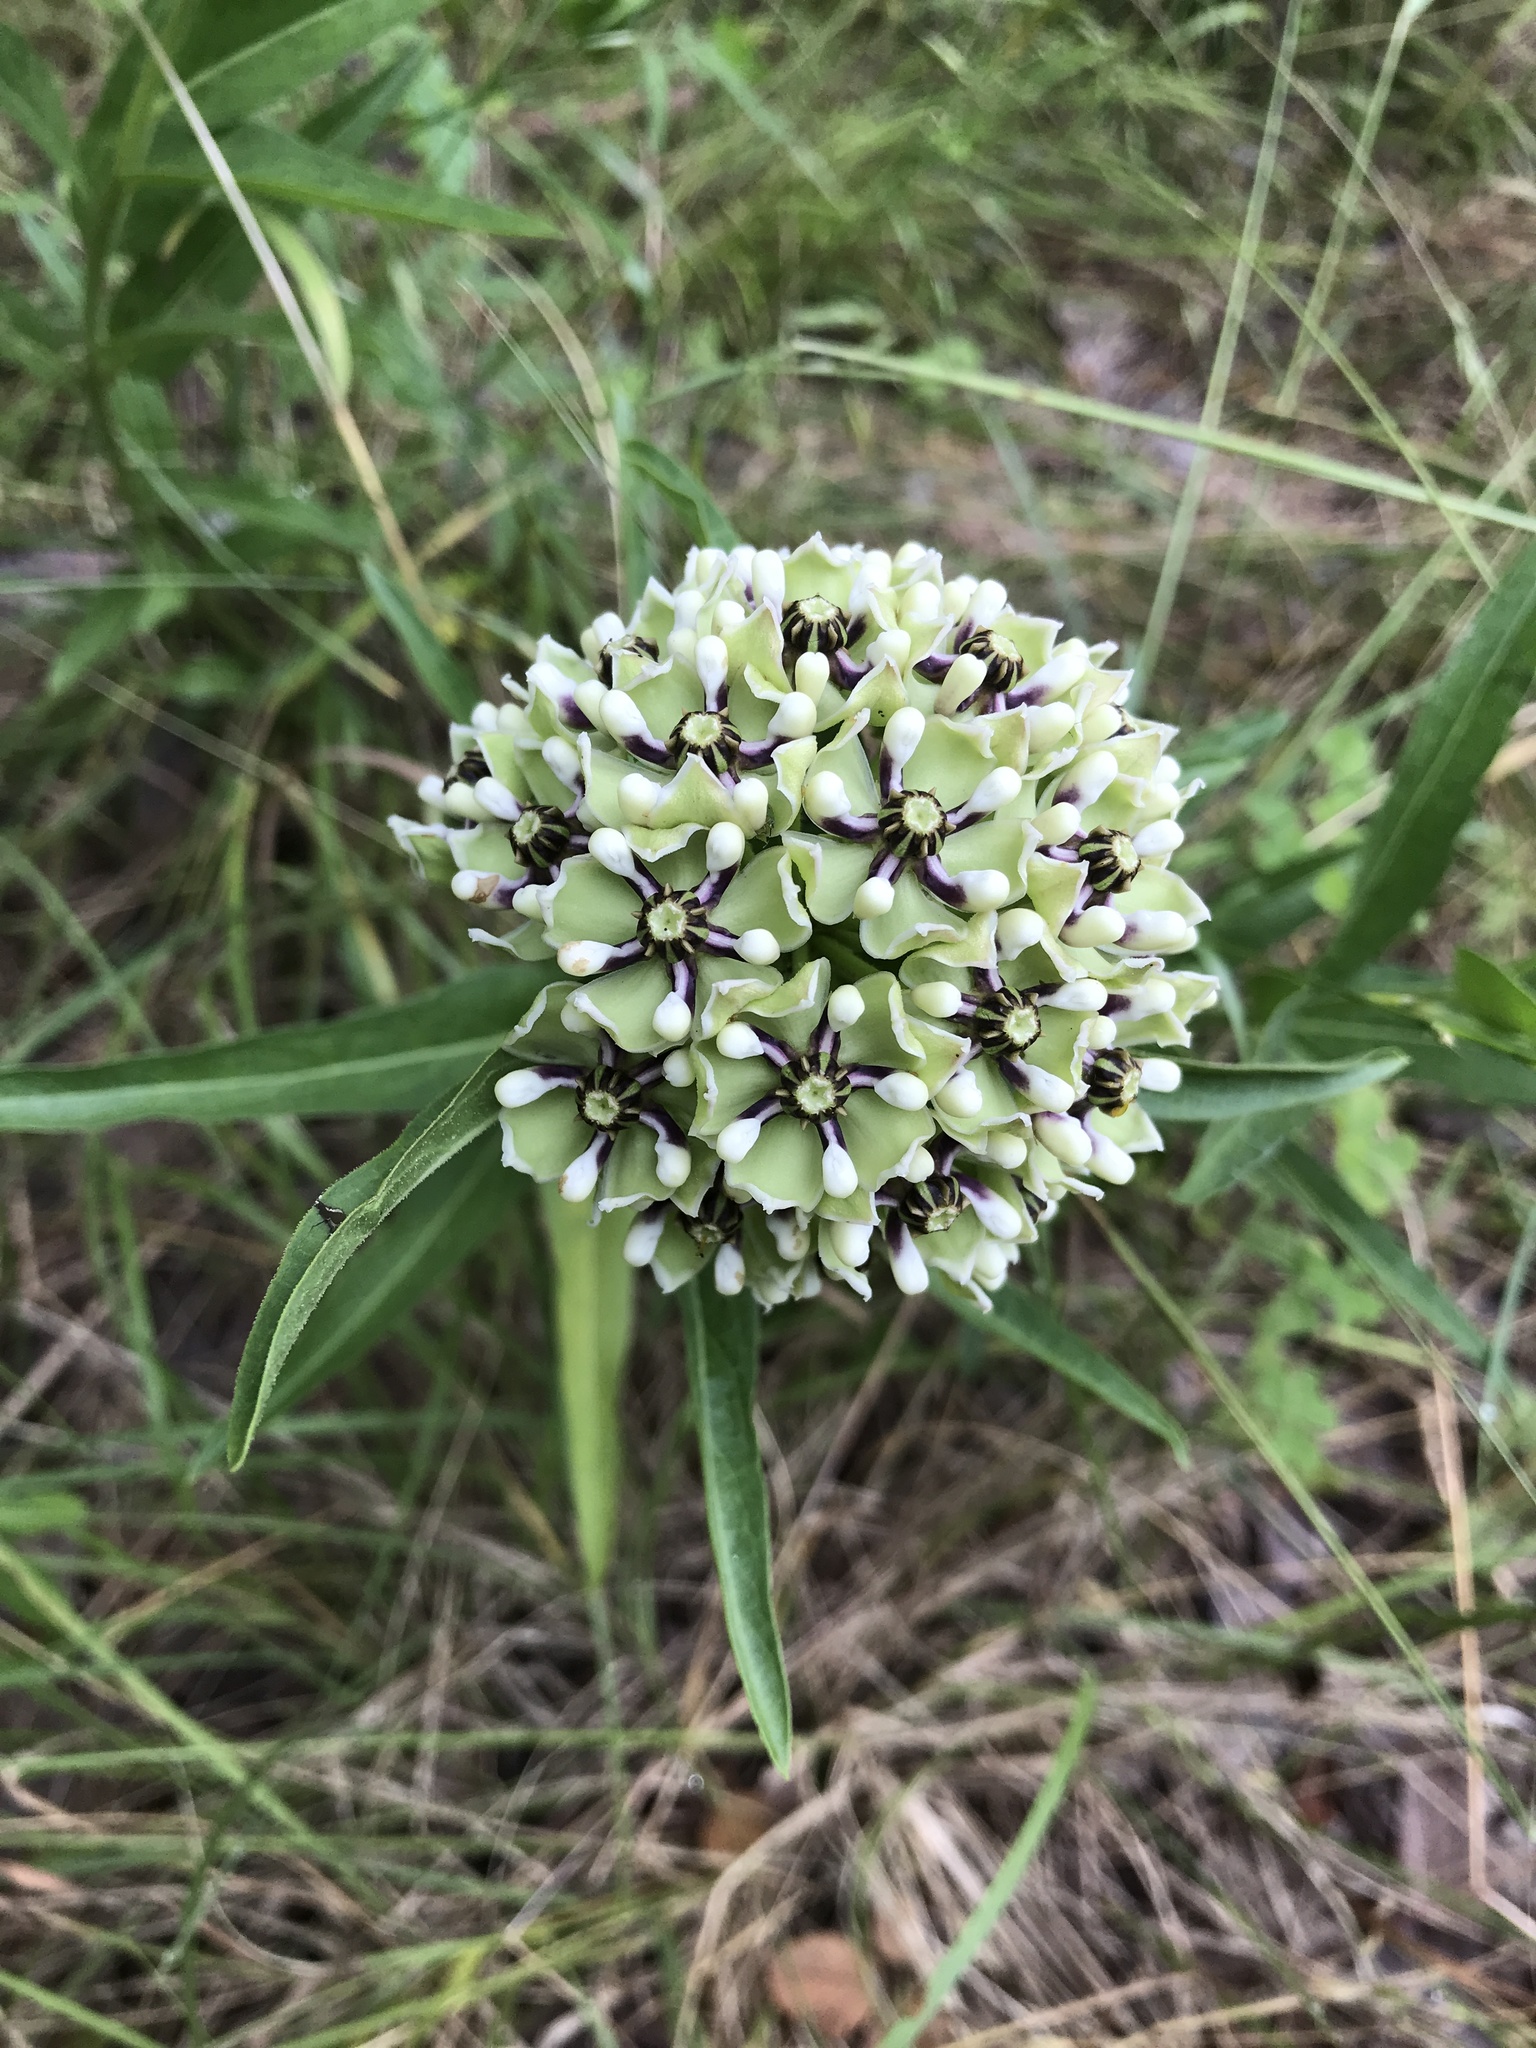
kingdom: Plantae
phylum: Tracheophyta
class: Magnoliopsida
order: Gentianales
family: Apocynaceae
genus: Asclepias
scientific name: Asclepias asperula
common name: Antelope horns
